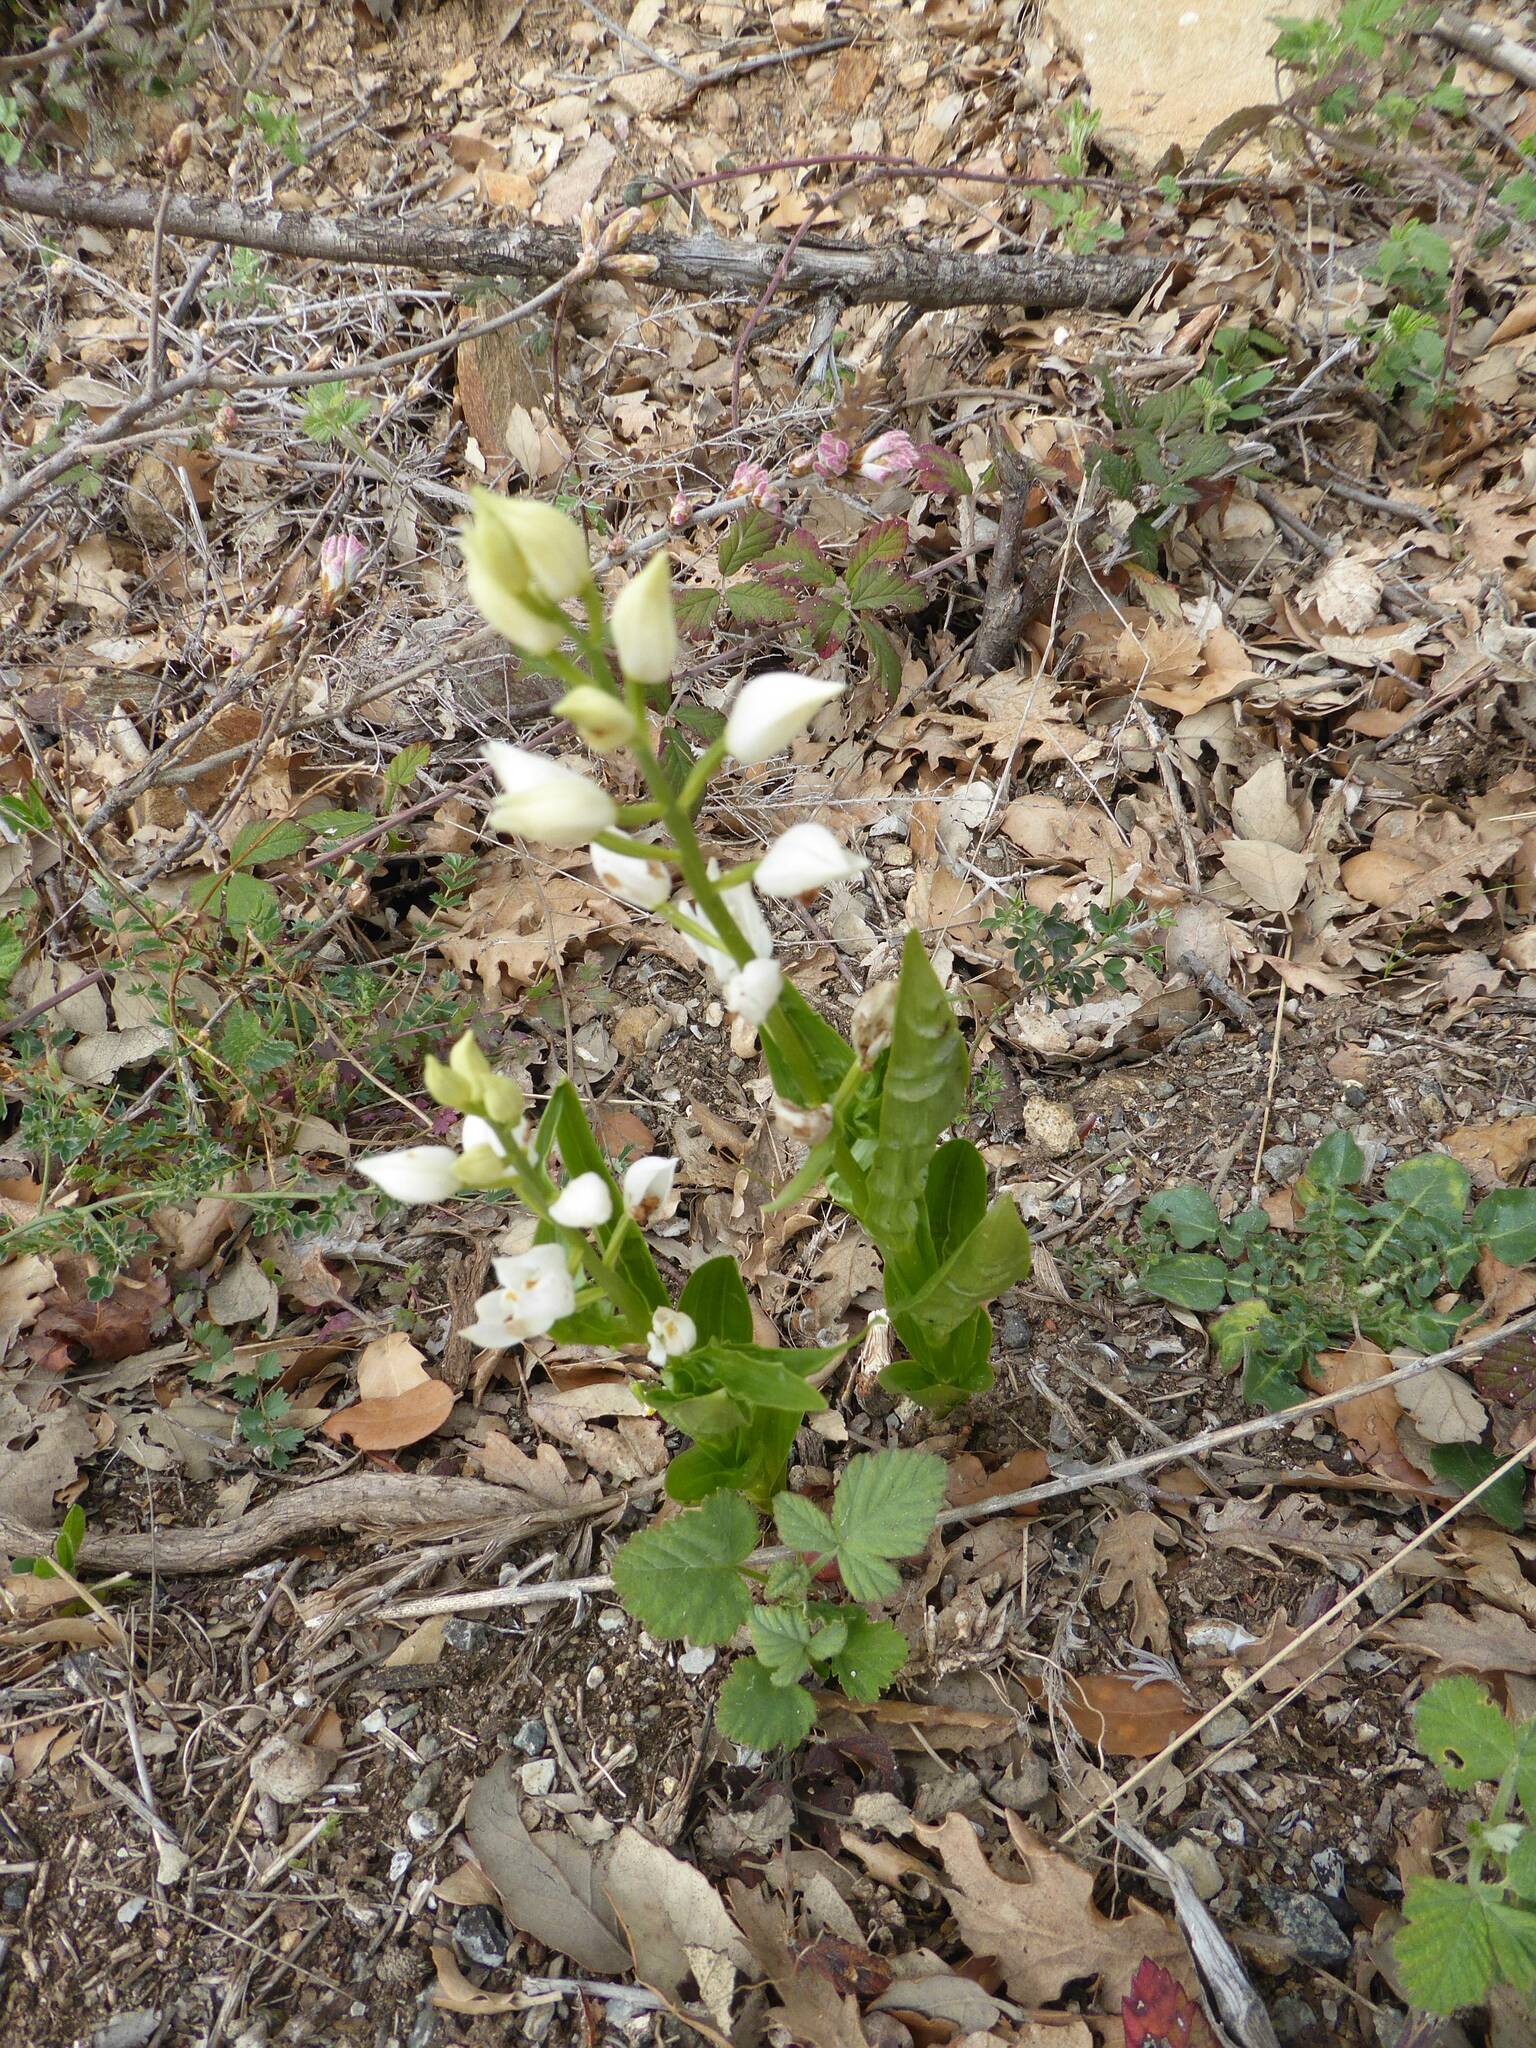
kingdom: Plantae
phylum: Tracheophyta
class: Liliopsida
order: Asparagales
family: Orchidaceae
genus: Cephalanthera
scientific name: Cephalanthera longifolia
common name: Narrow-leaved helleborine
